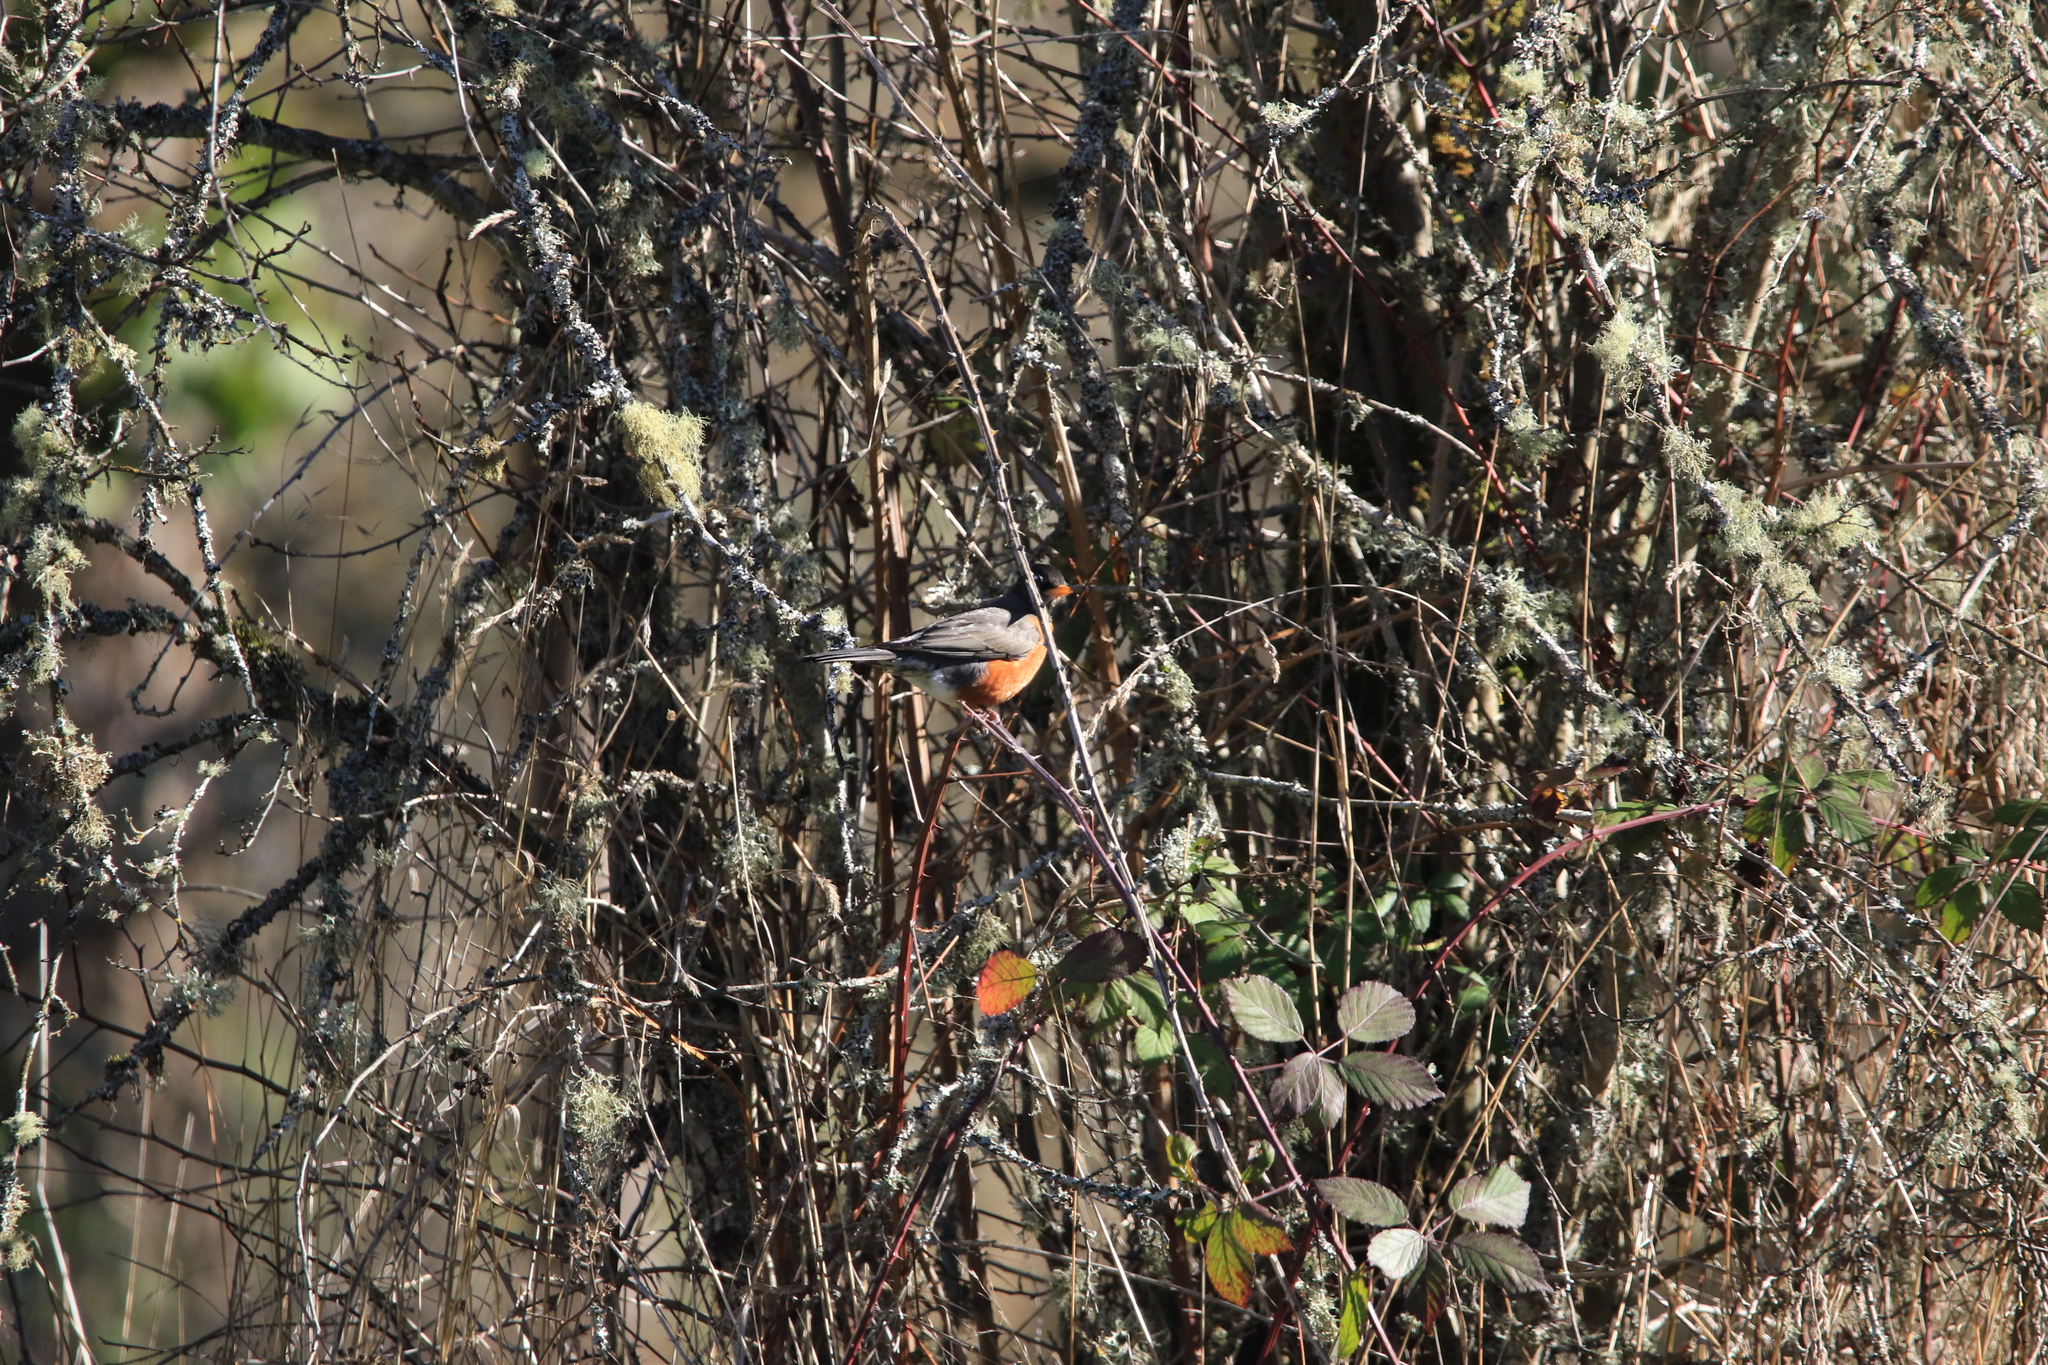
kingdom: Animalia
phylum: Chordata
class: Aves
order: Passeriformes
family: Turdidae
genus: Turdus
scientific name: Turdus migratorius
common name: American robin
